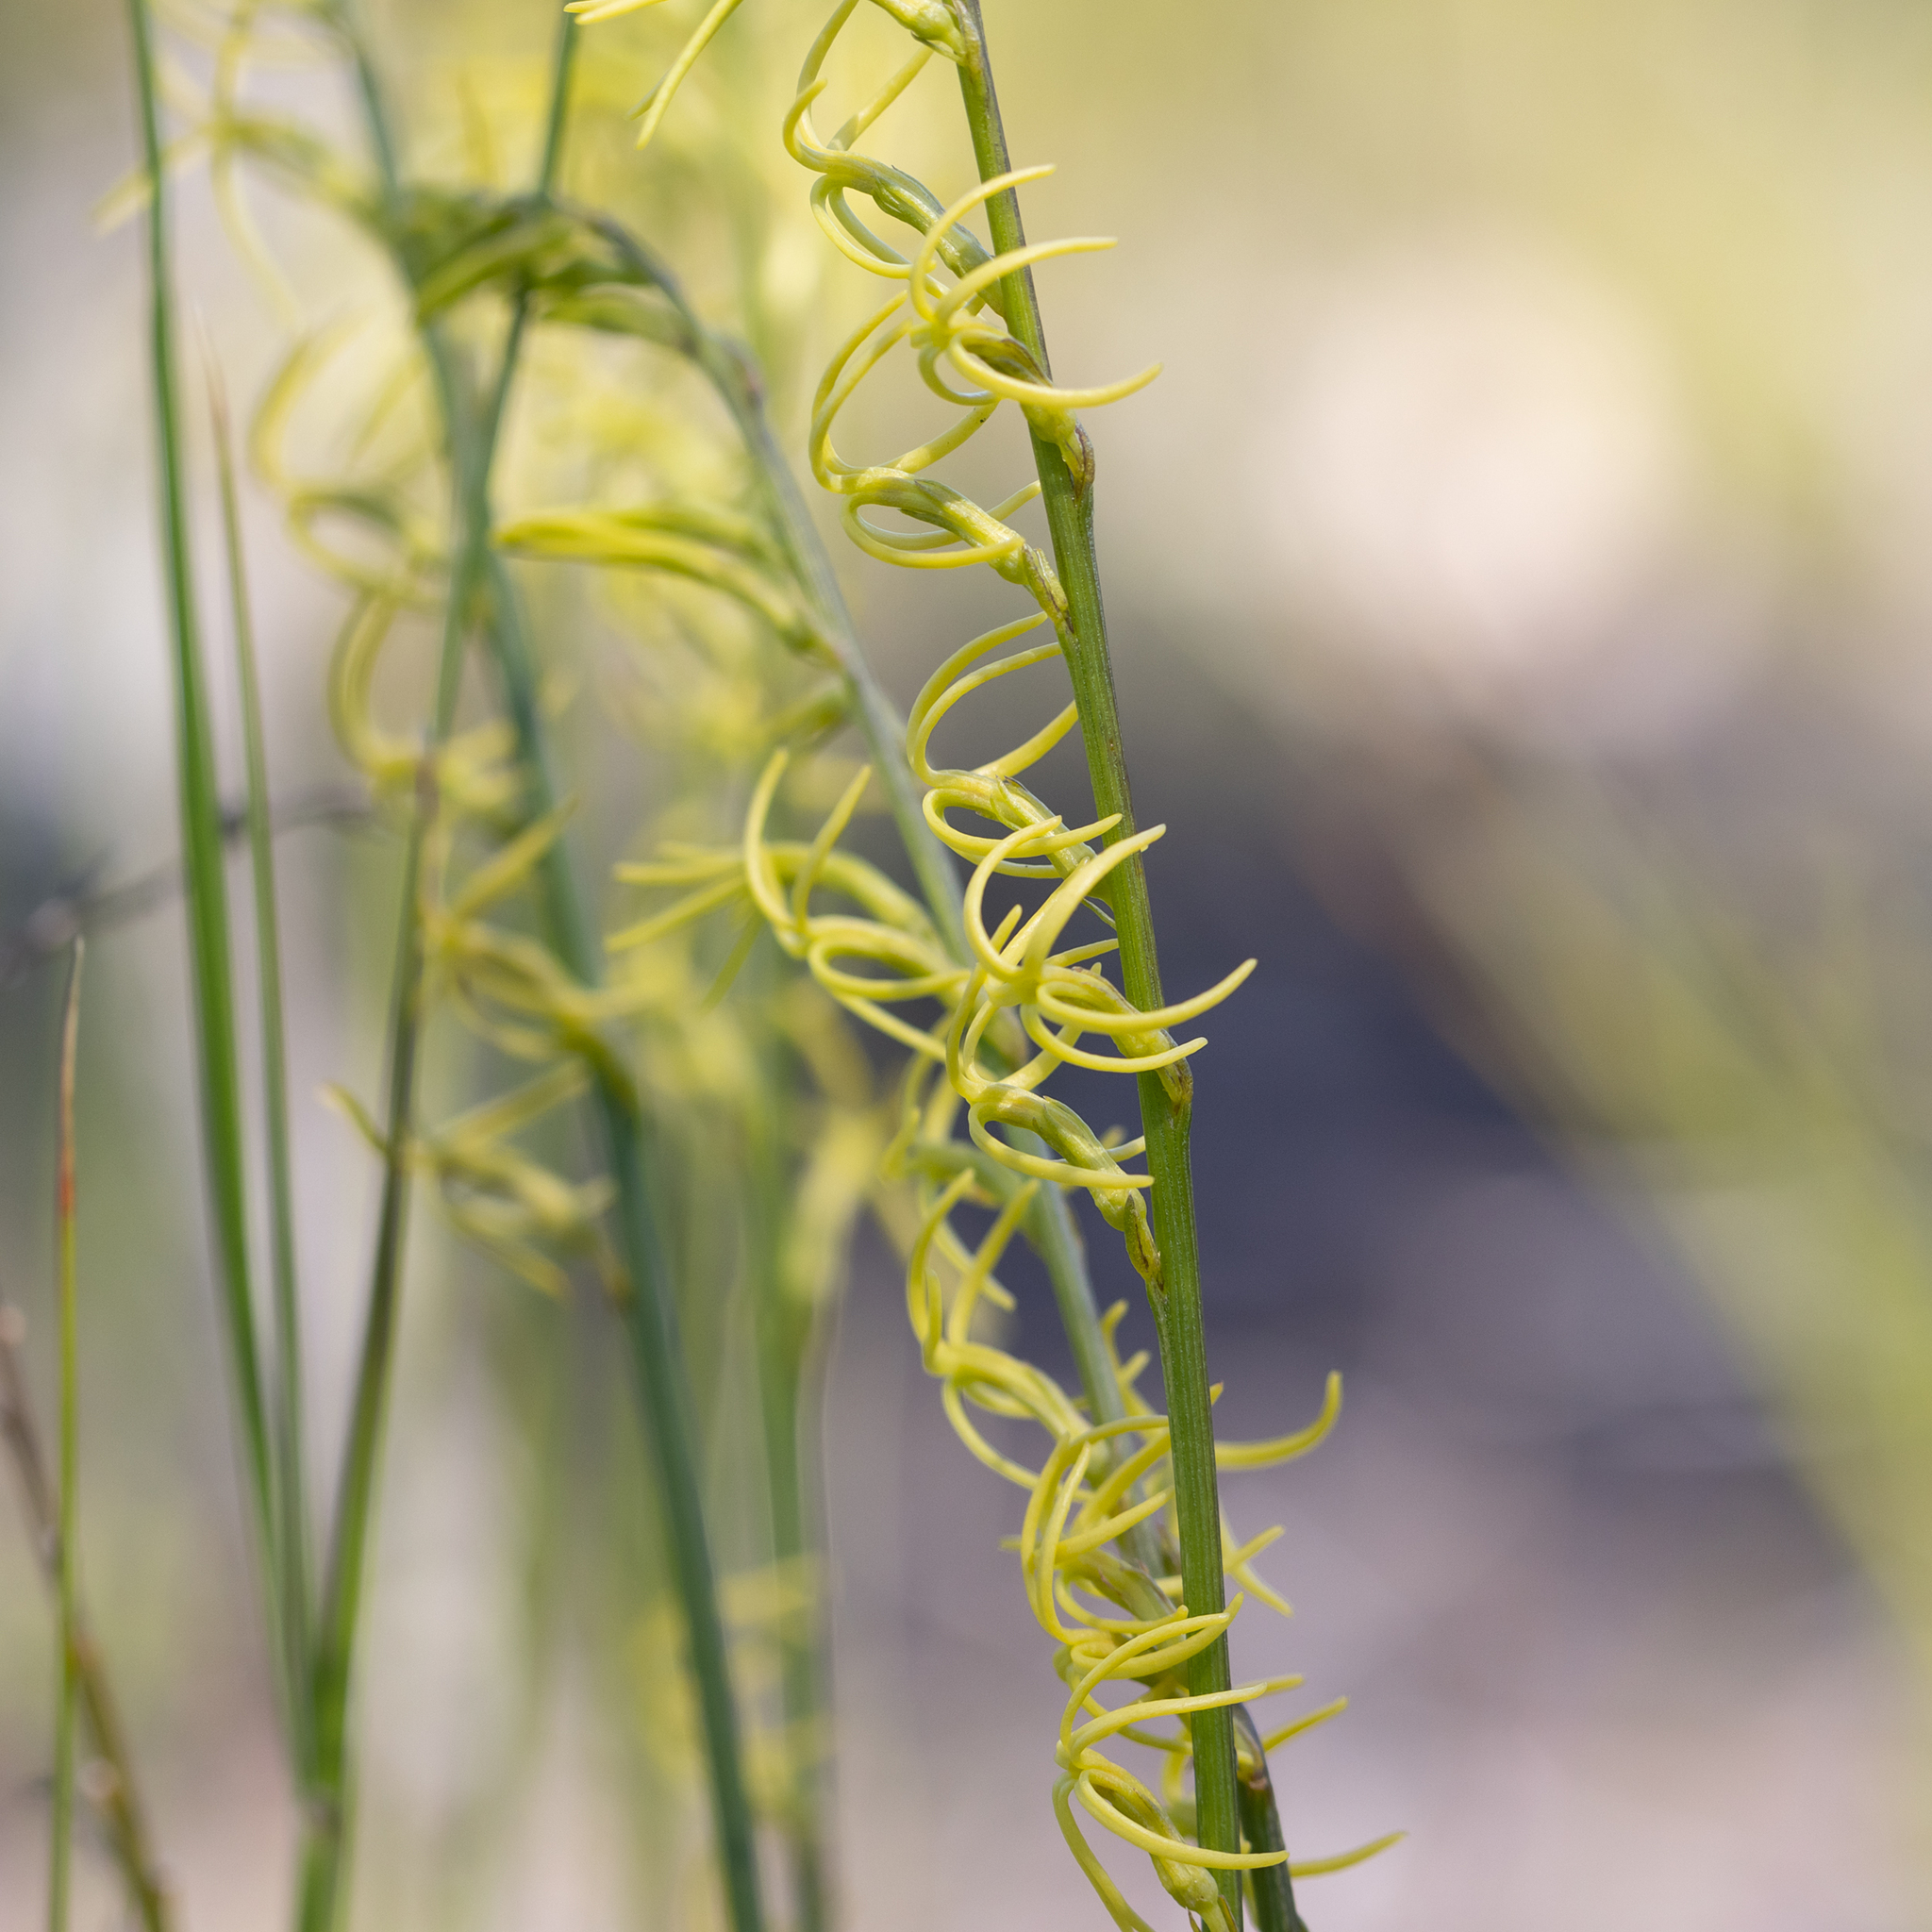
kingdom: Plantae
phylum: Tracheophyta
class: Magnoliopsida
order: Celastrales
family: Celastraceae
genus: Tripterococcus
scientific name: Tripterococcus brunonis
